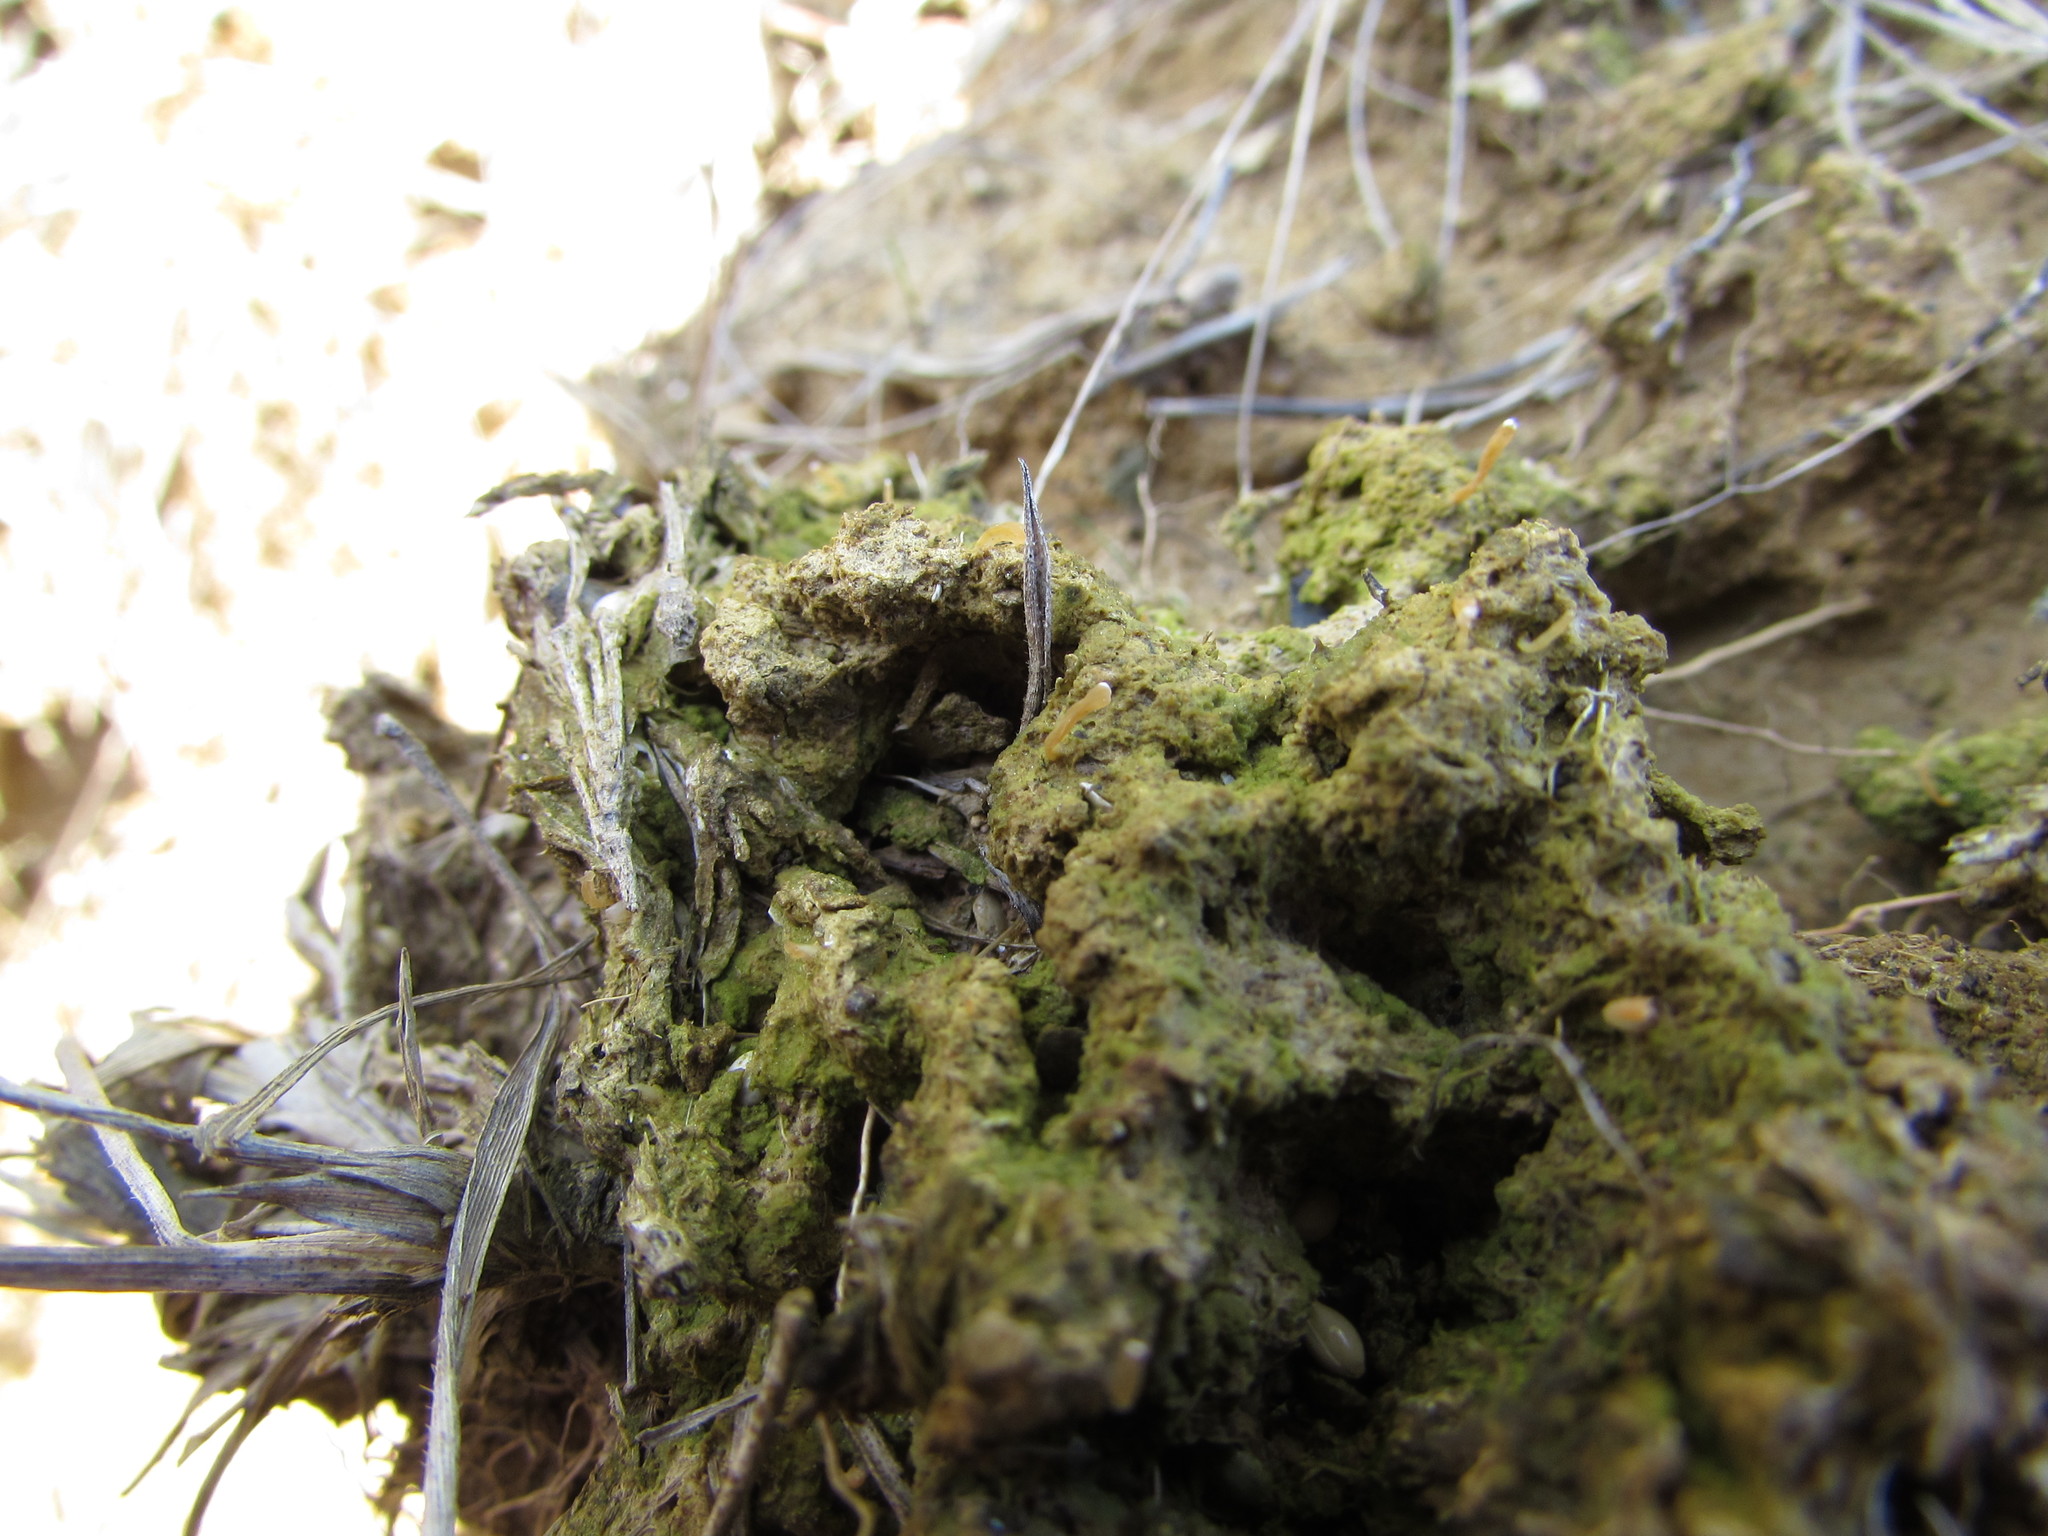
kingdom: Fungi
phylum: Basidiomycota
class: Agaricomycetes
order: Cantharellales
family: Hydnaceae
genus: Multiclavula
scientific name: Multiclavula vernalis
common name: Moss club
